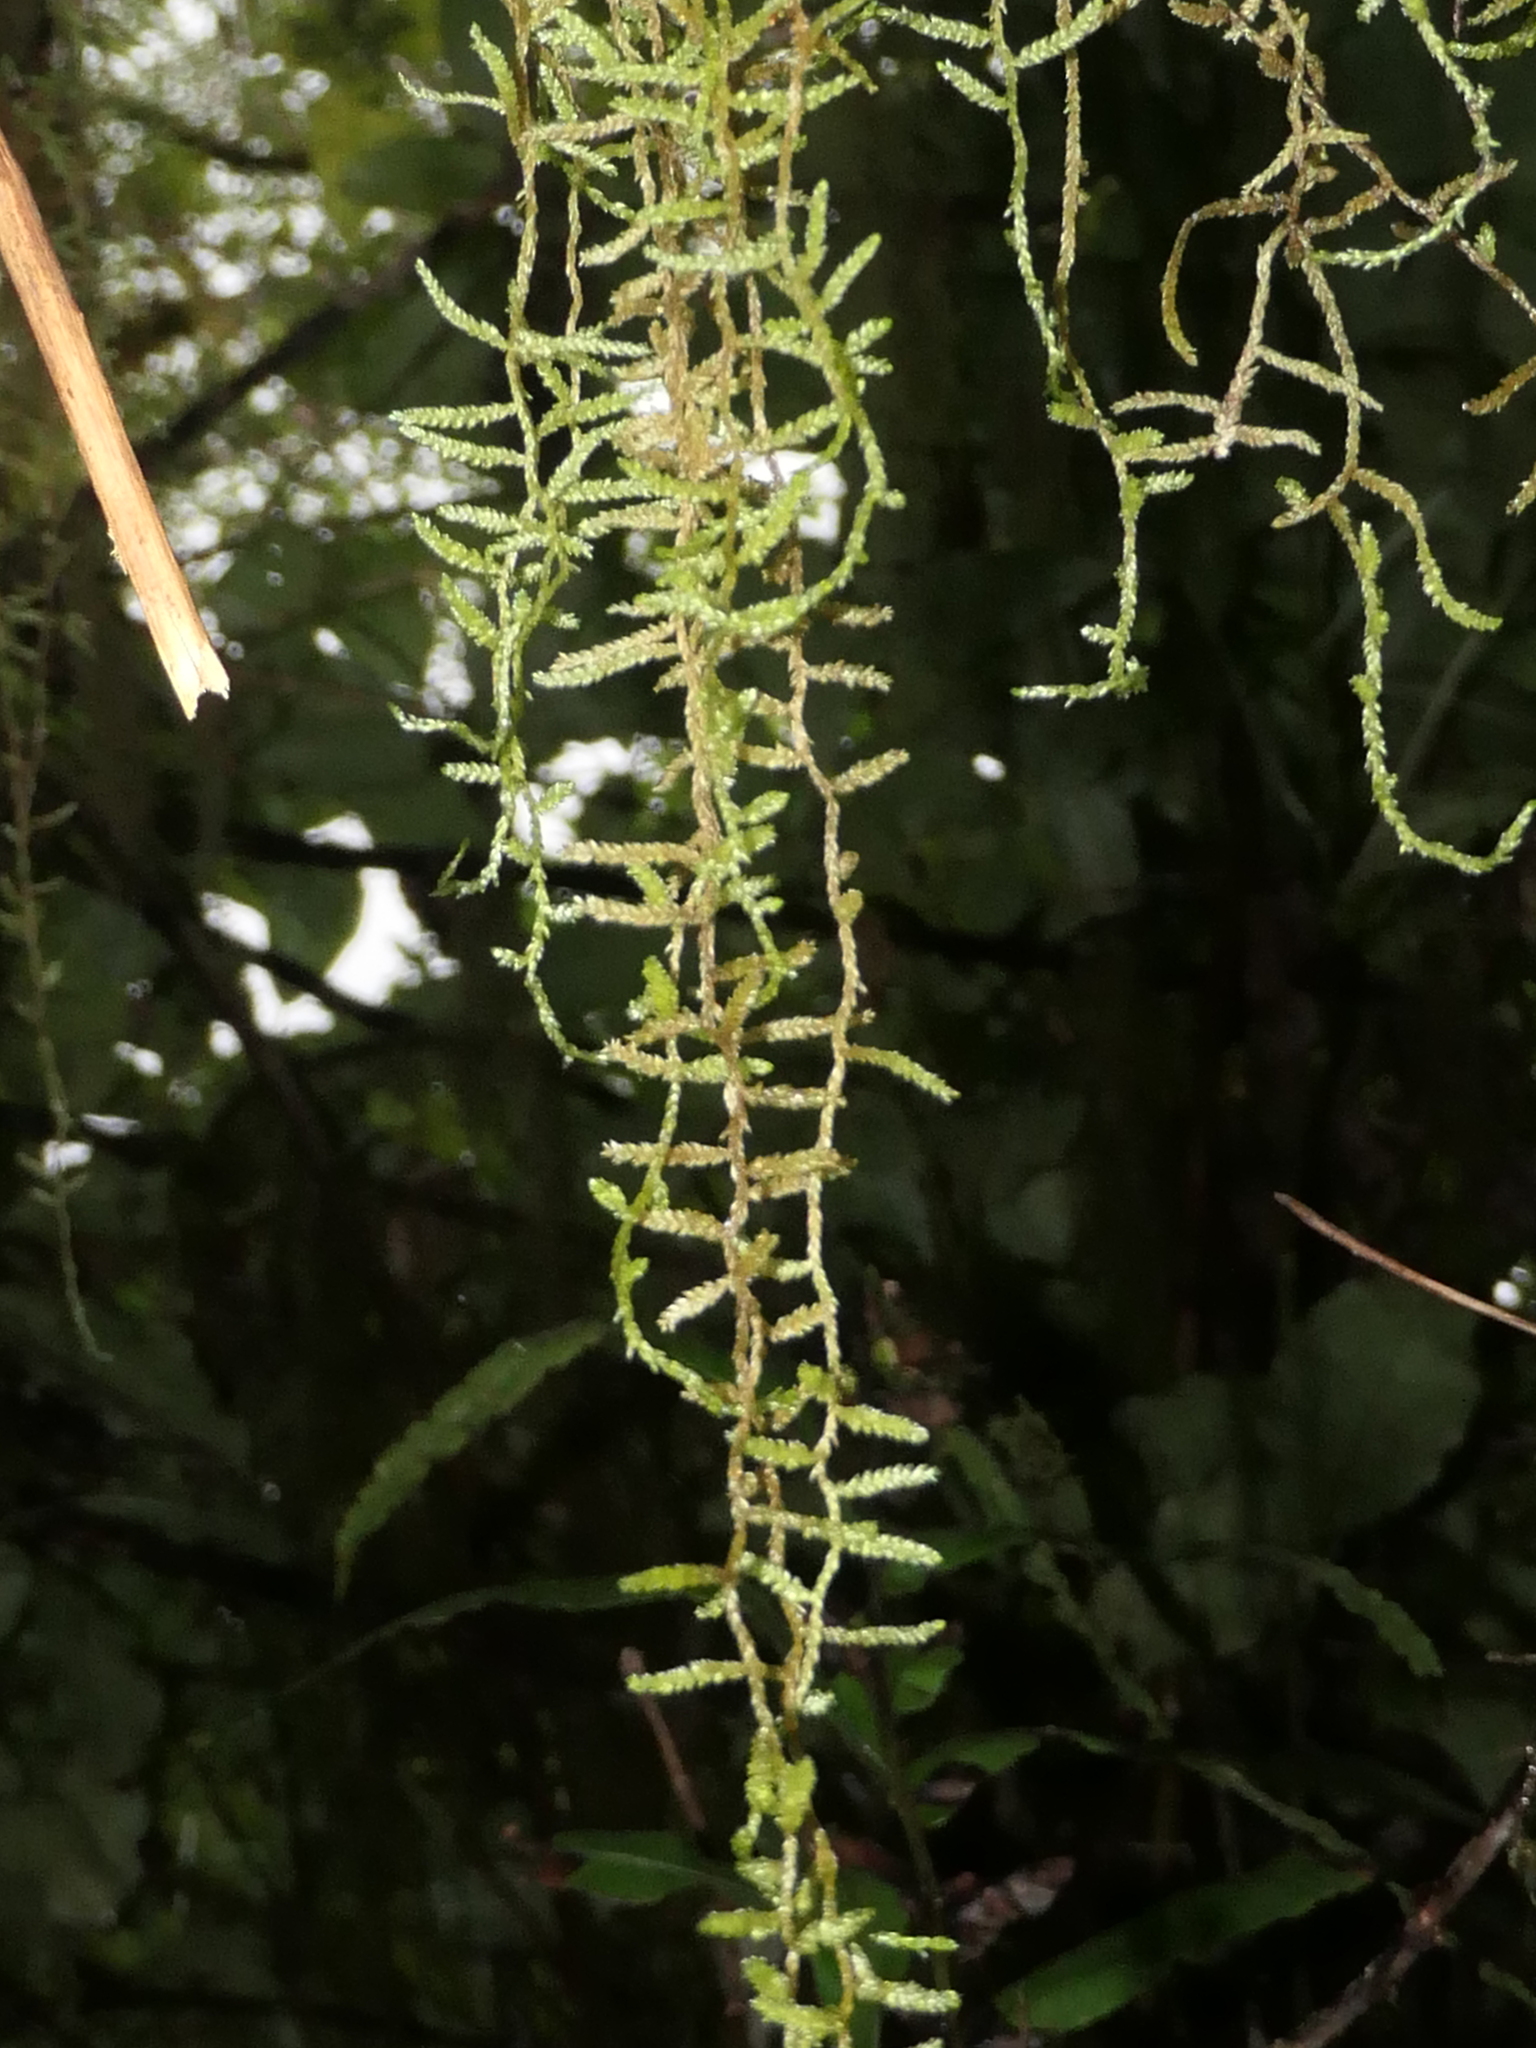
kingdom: Plantae
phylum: Bryophyta
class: Bryopsida
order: Hypnales
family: Lembophyllaceae
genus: Weymouthia
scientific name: Weymouthia mollis
